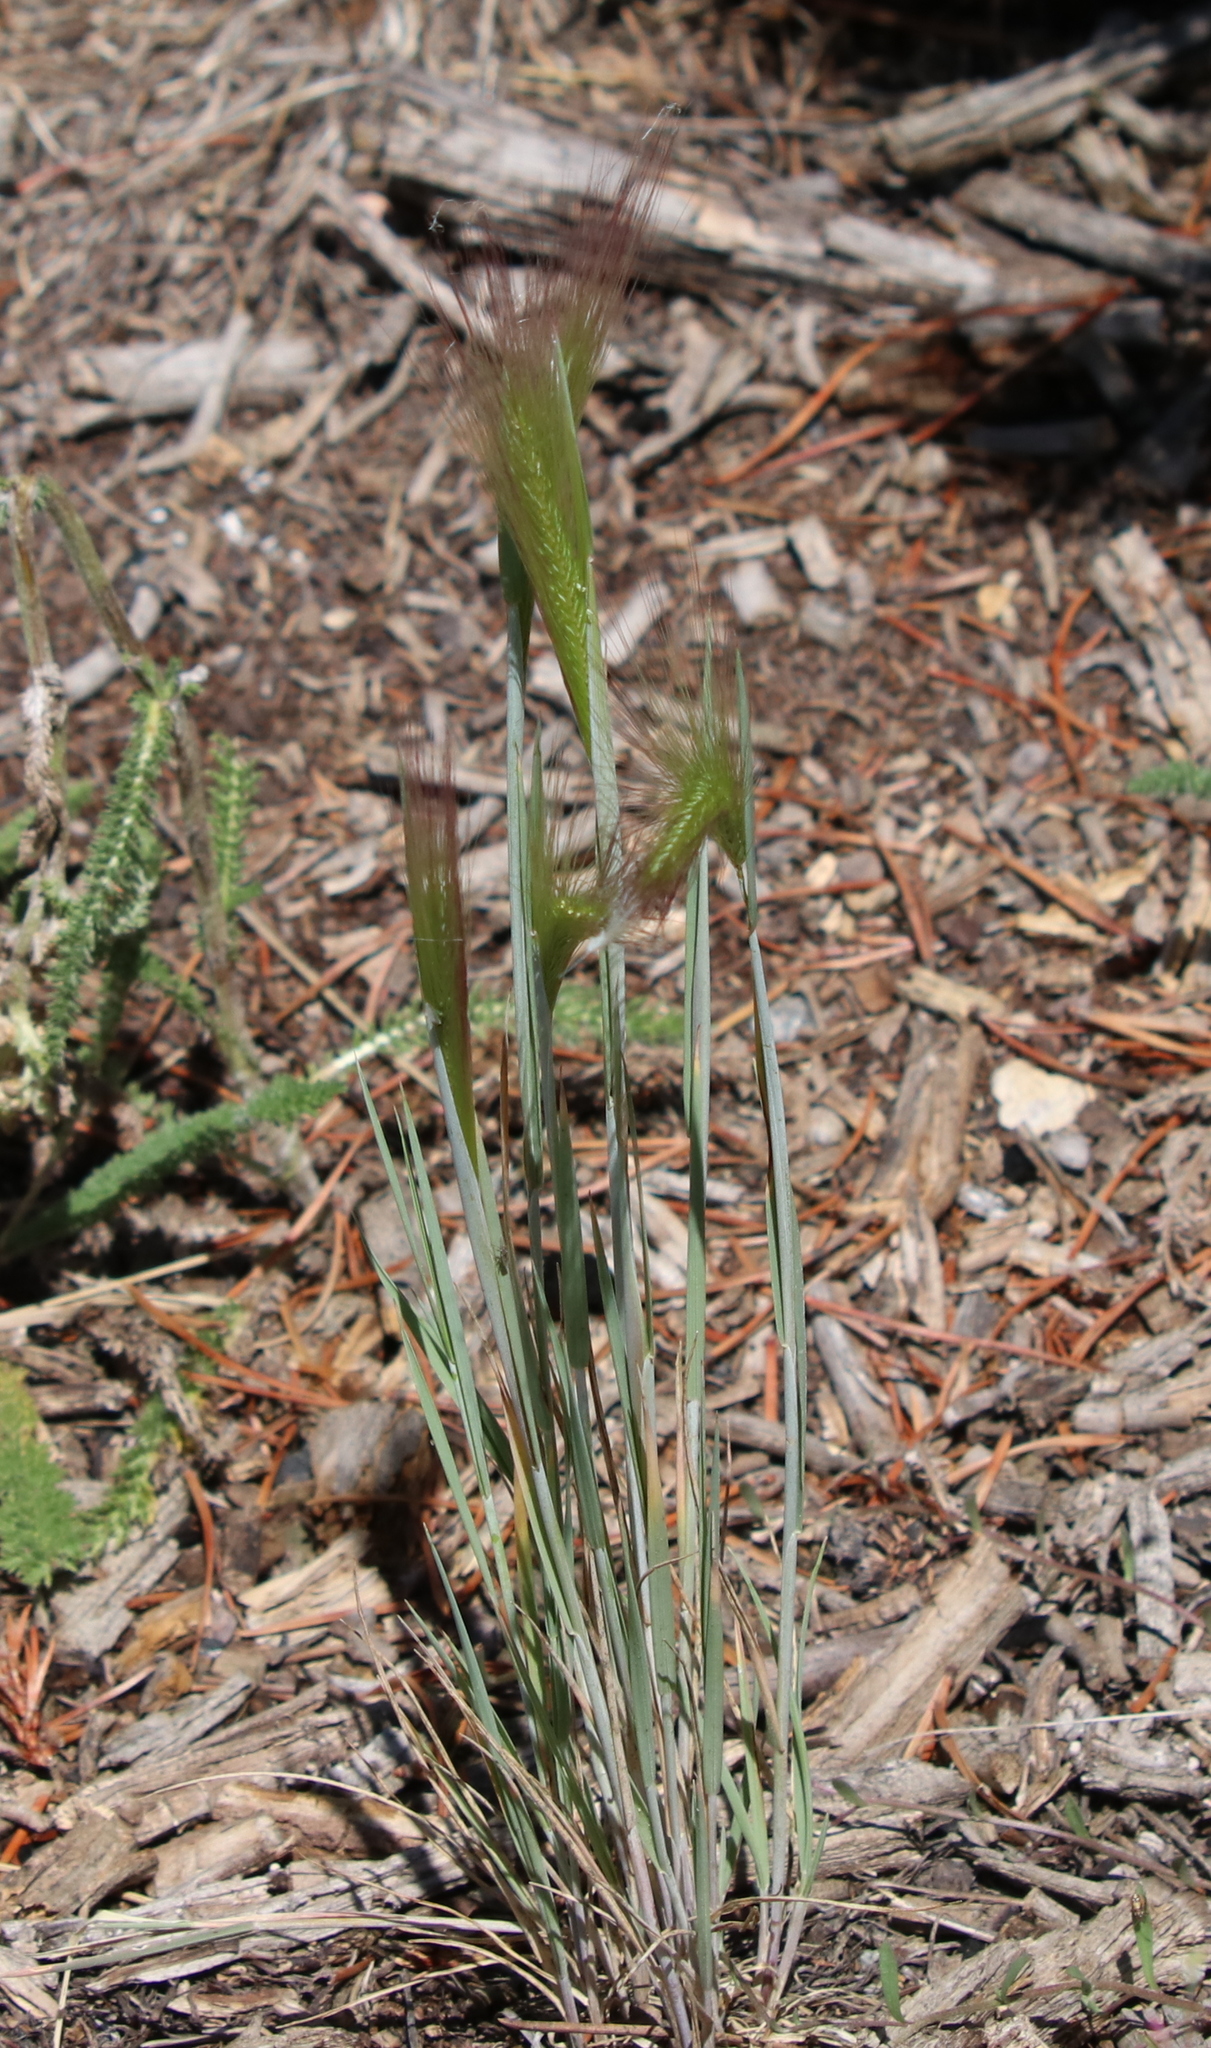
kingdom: Plantae
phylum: Tracheophyta
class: Liliopsida
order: Poales
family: Poaceae
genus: Elymus
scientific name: Elymus elymoides
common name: Bottlebrush squirreltail
